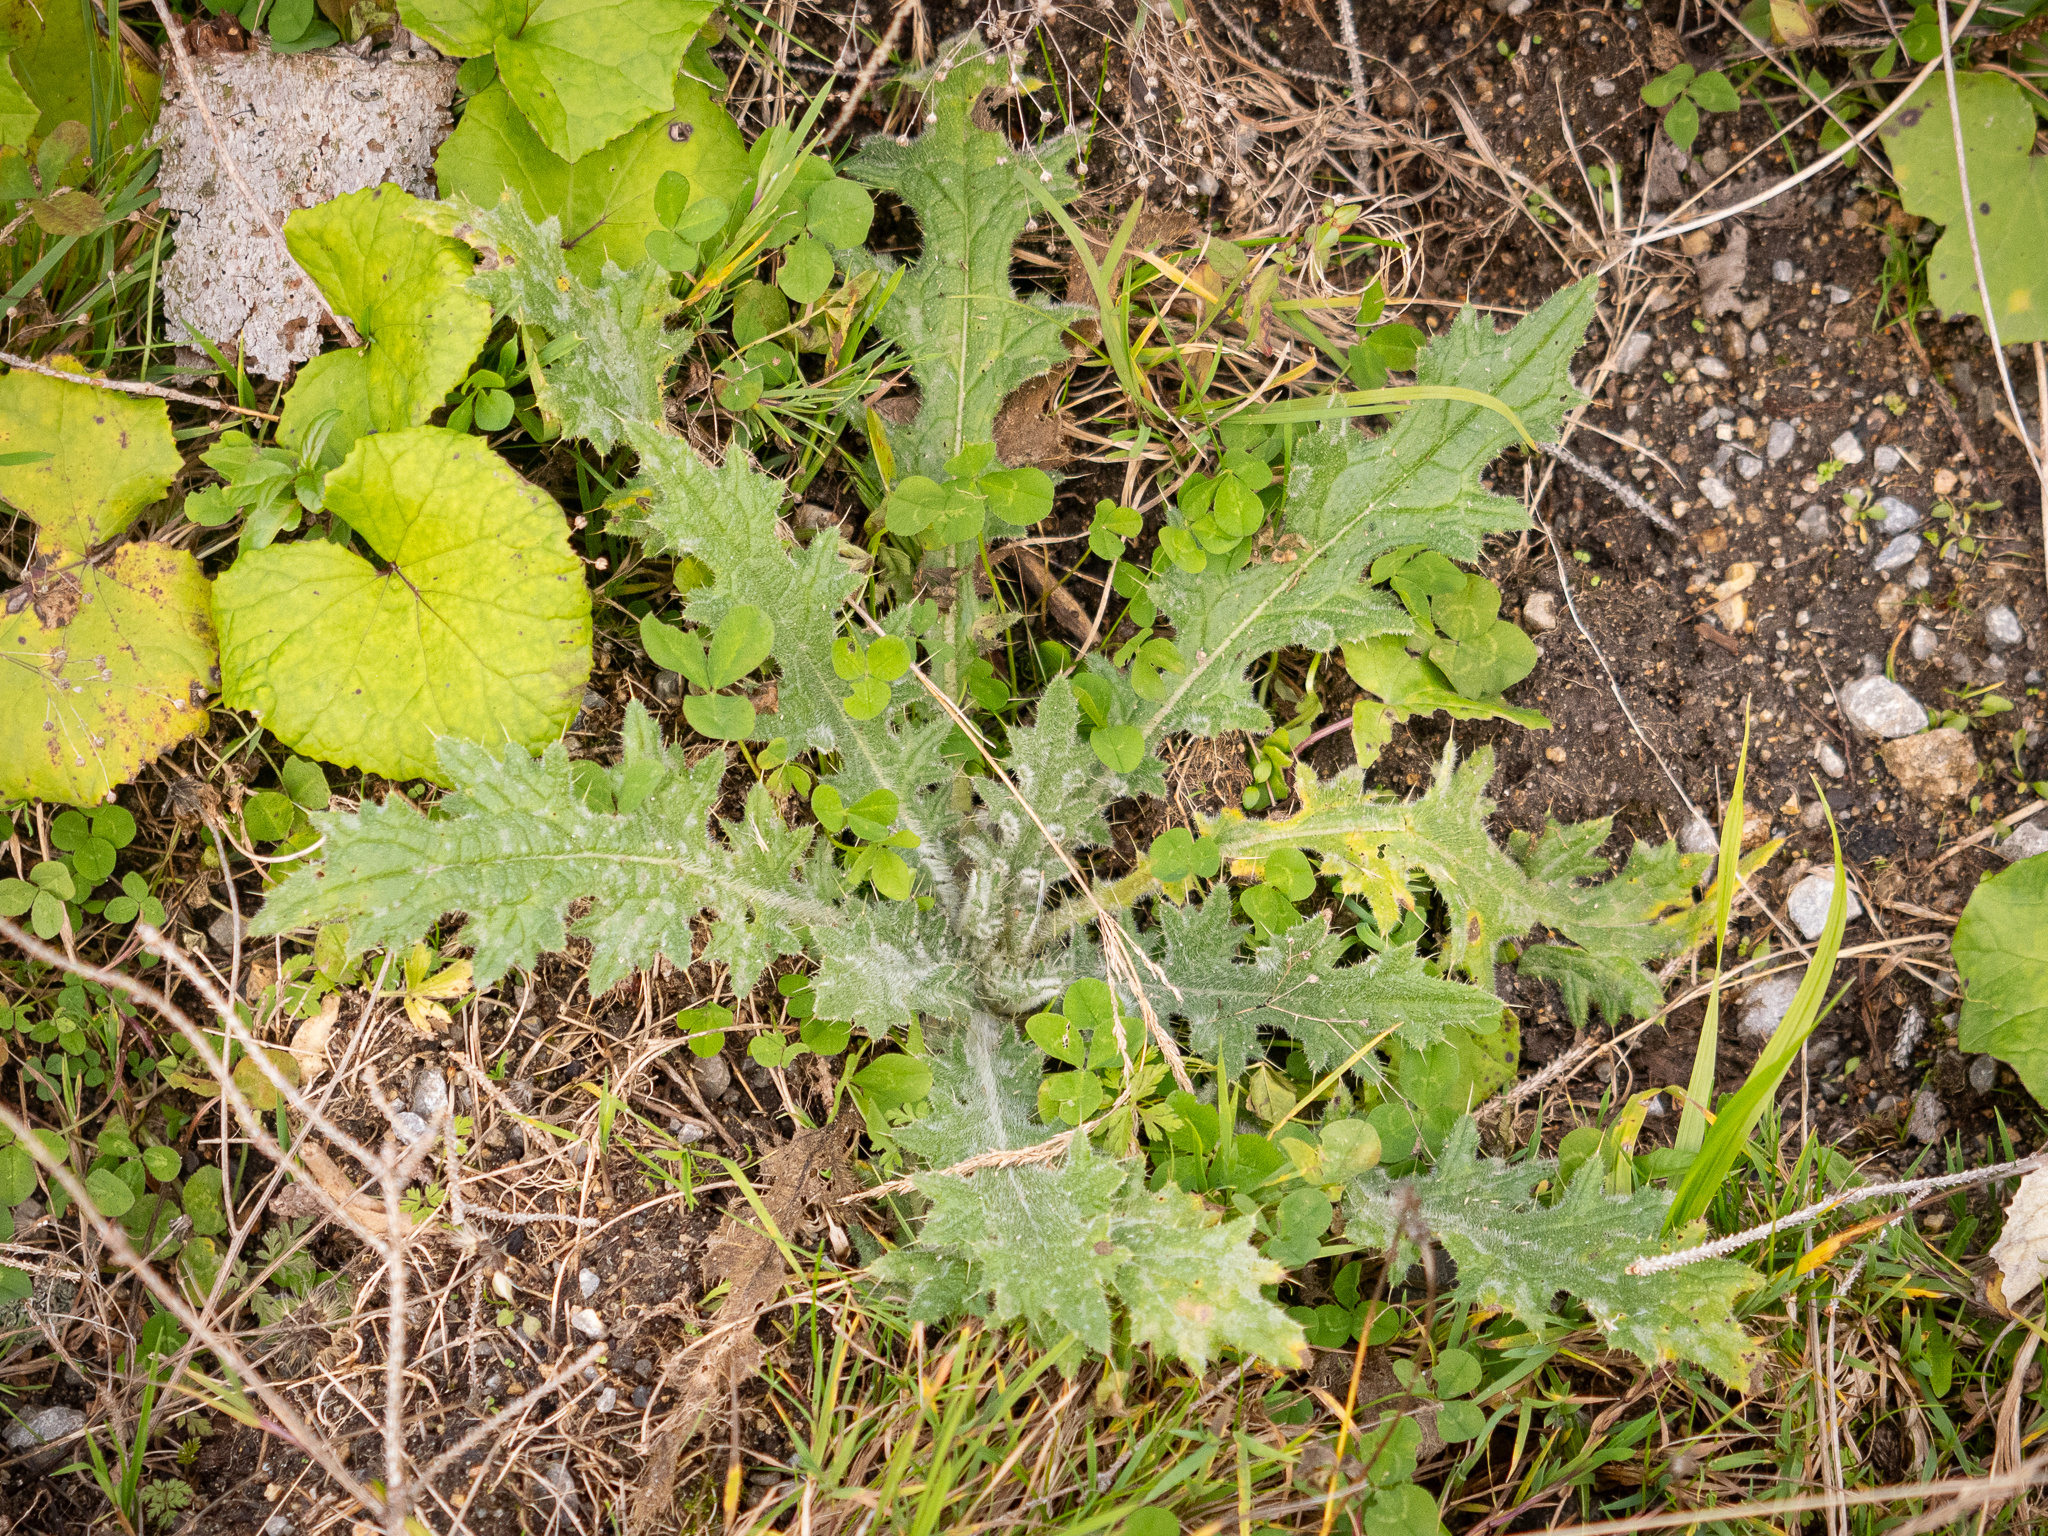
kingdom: Plantae
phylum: Tracheophyta
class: Magnoliopsida
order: Asterales
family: Asteraceae
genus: Cirsium
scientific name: Cirsium vulgare
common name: Bull thistle
